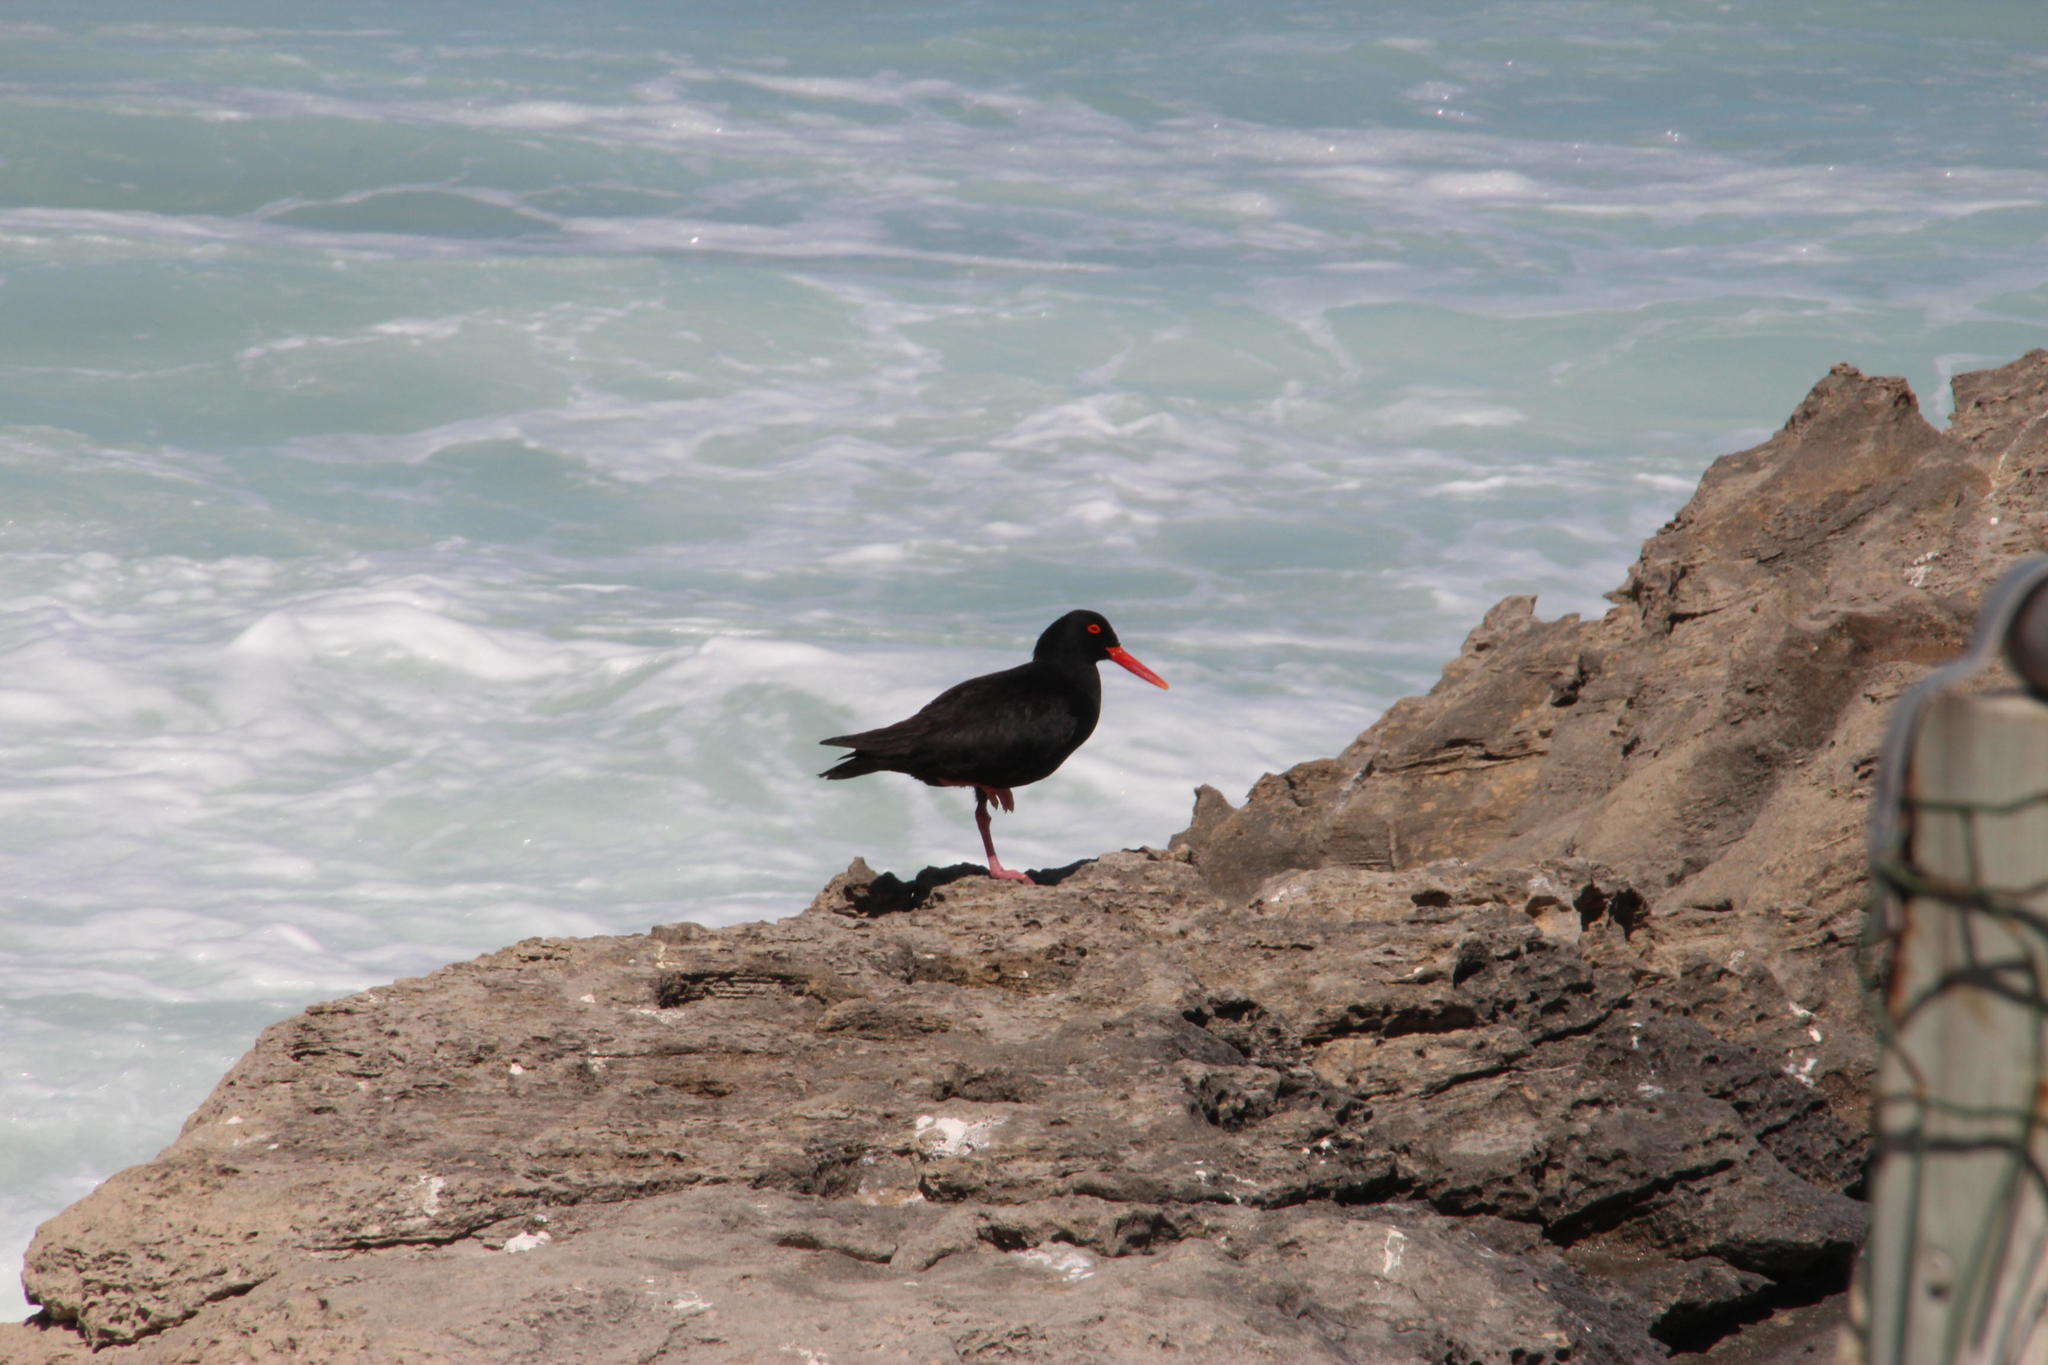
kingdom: Animalia
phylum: Chordata
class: Aves
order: Charadriiformes
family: Haematopodidae
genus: Haematopus
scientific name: Haematopus moquini
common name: African oystercatcher
